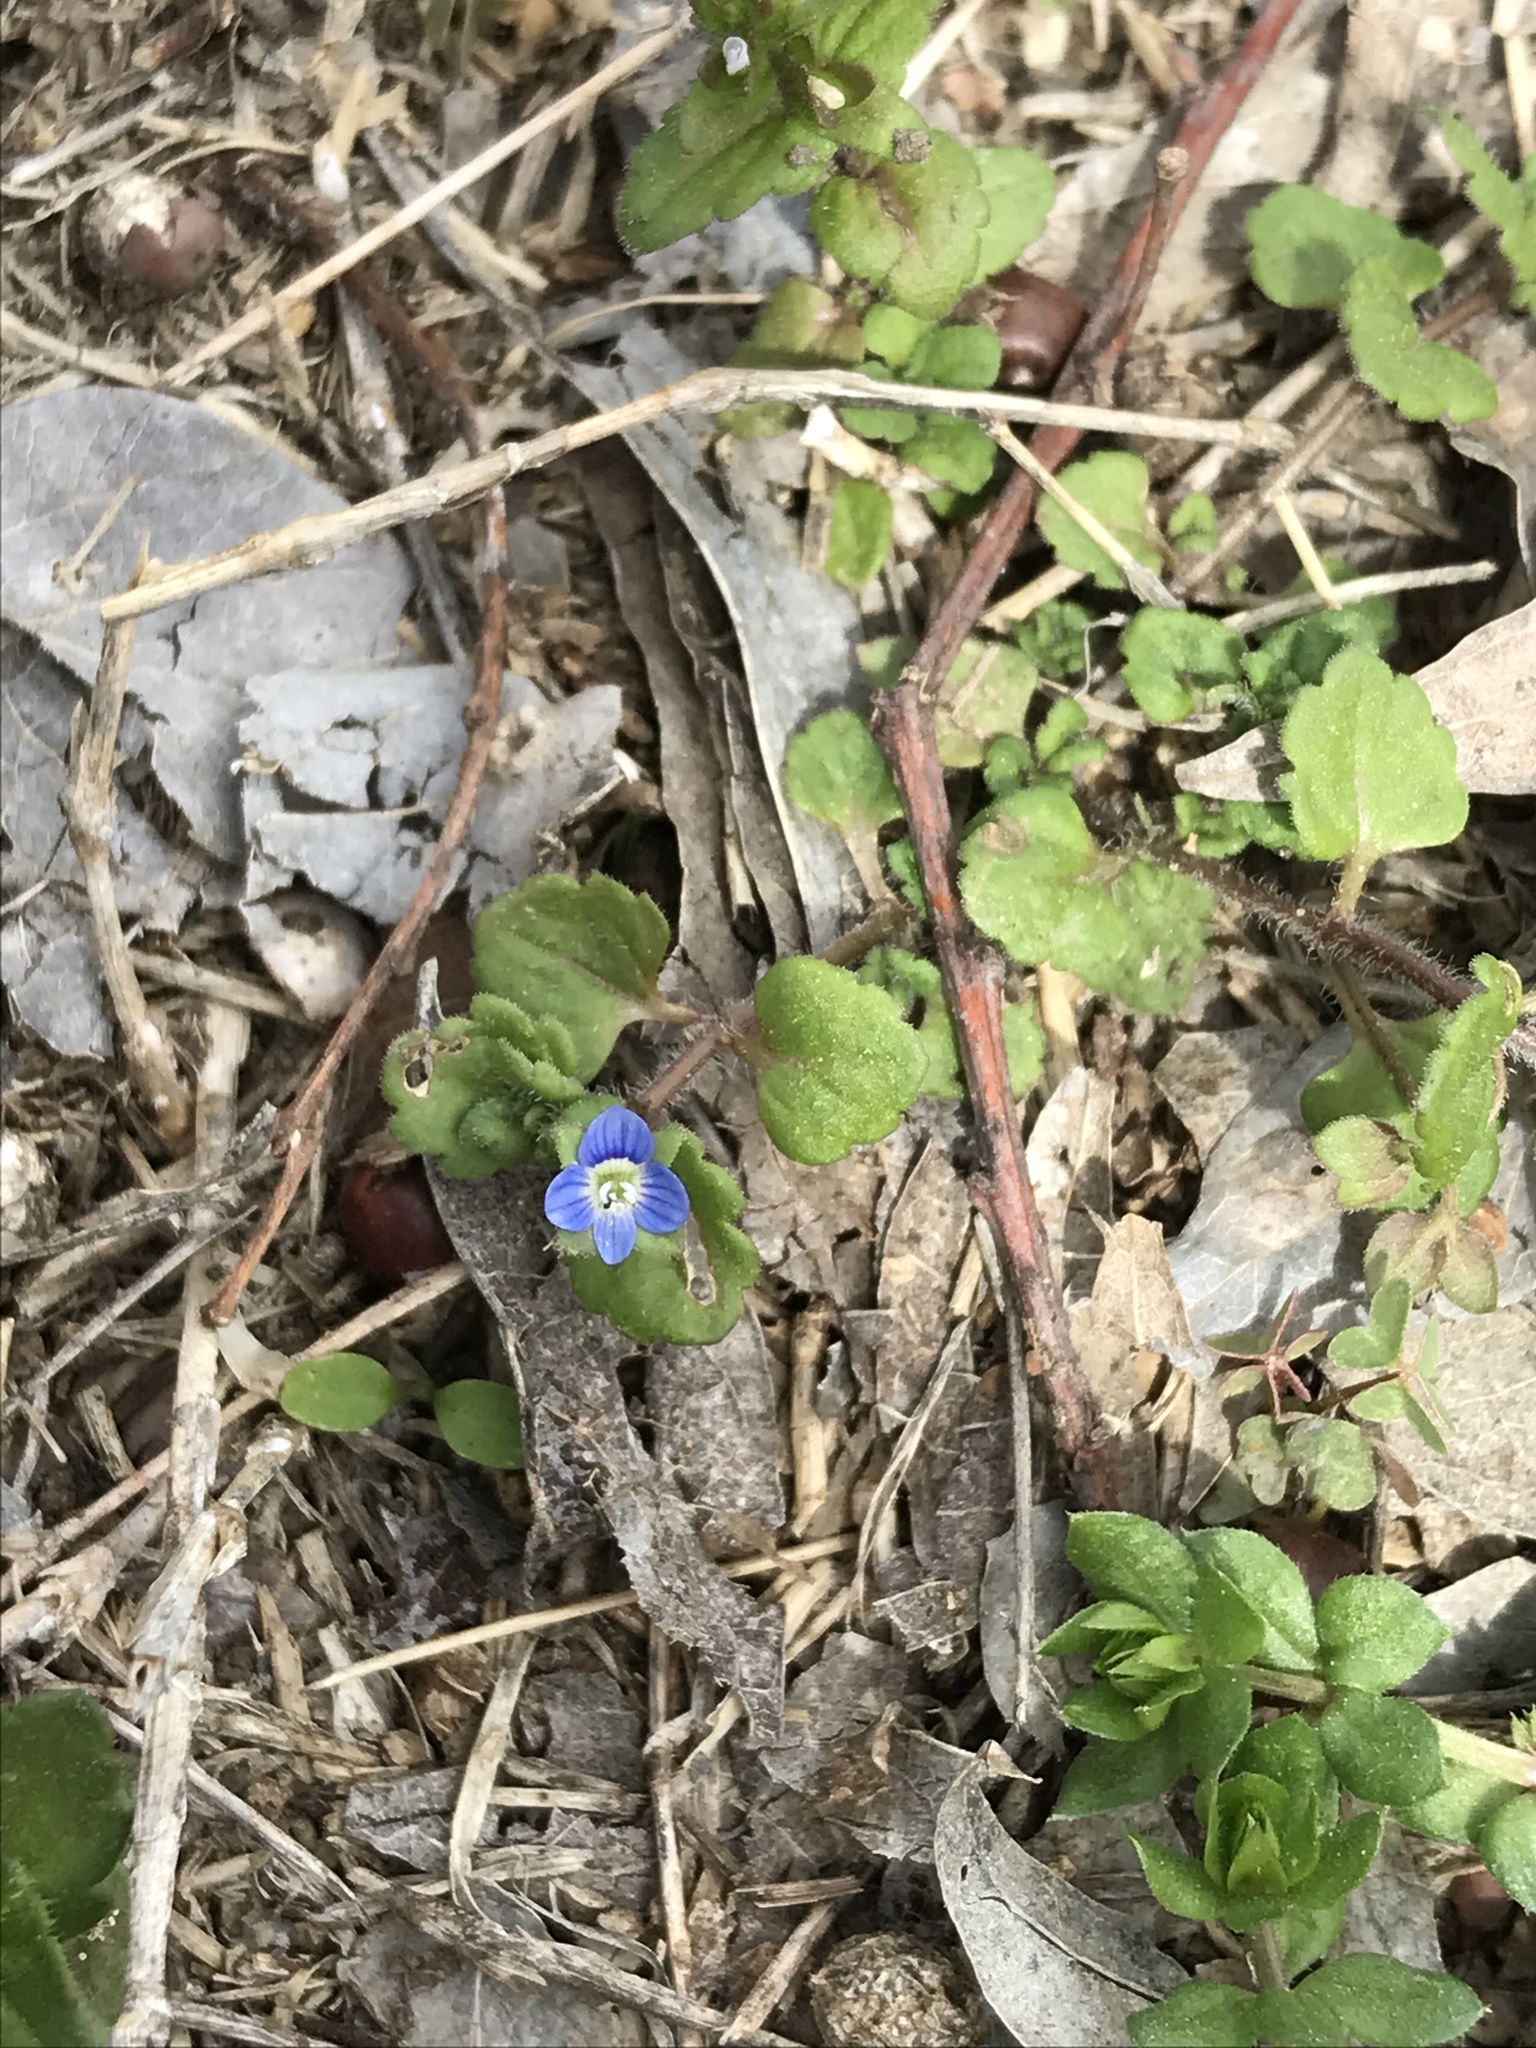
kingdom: Plantae
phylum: Tracheophyta
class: Magnoliopsida
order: Lamiales
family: Plantaginaceae
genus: Veronica
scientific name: Veronica polita
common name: Grey field-speedwell
